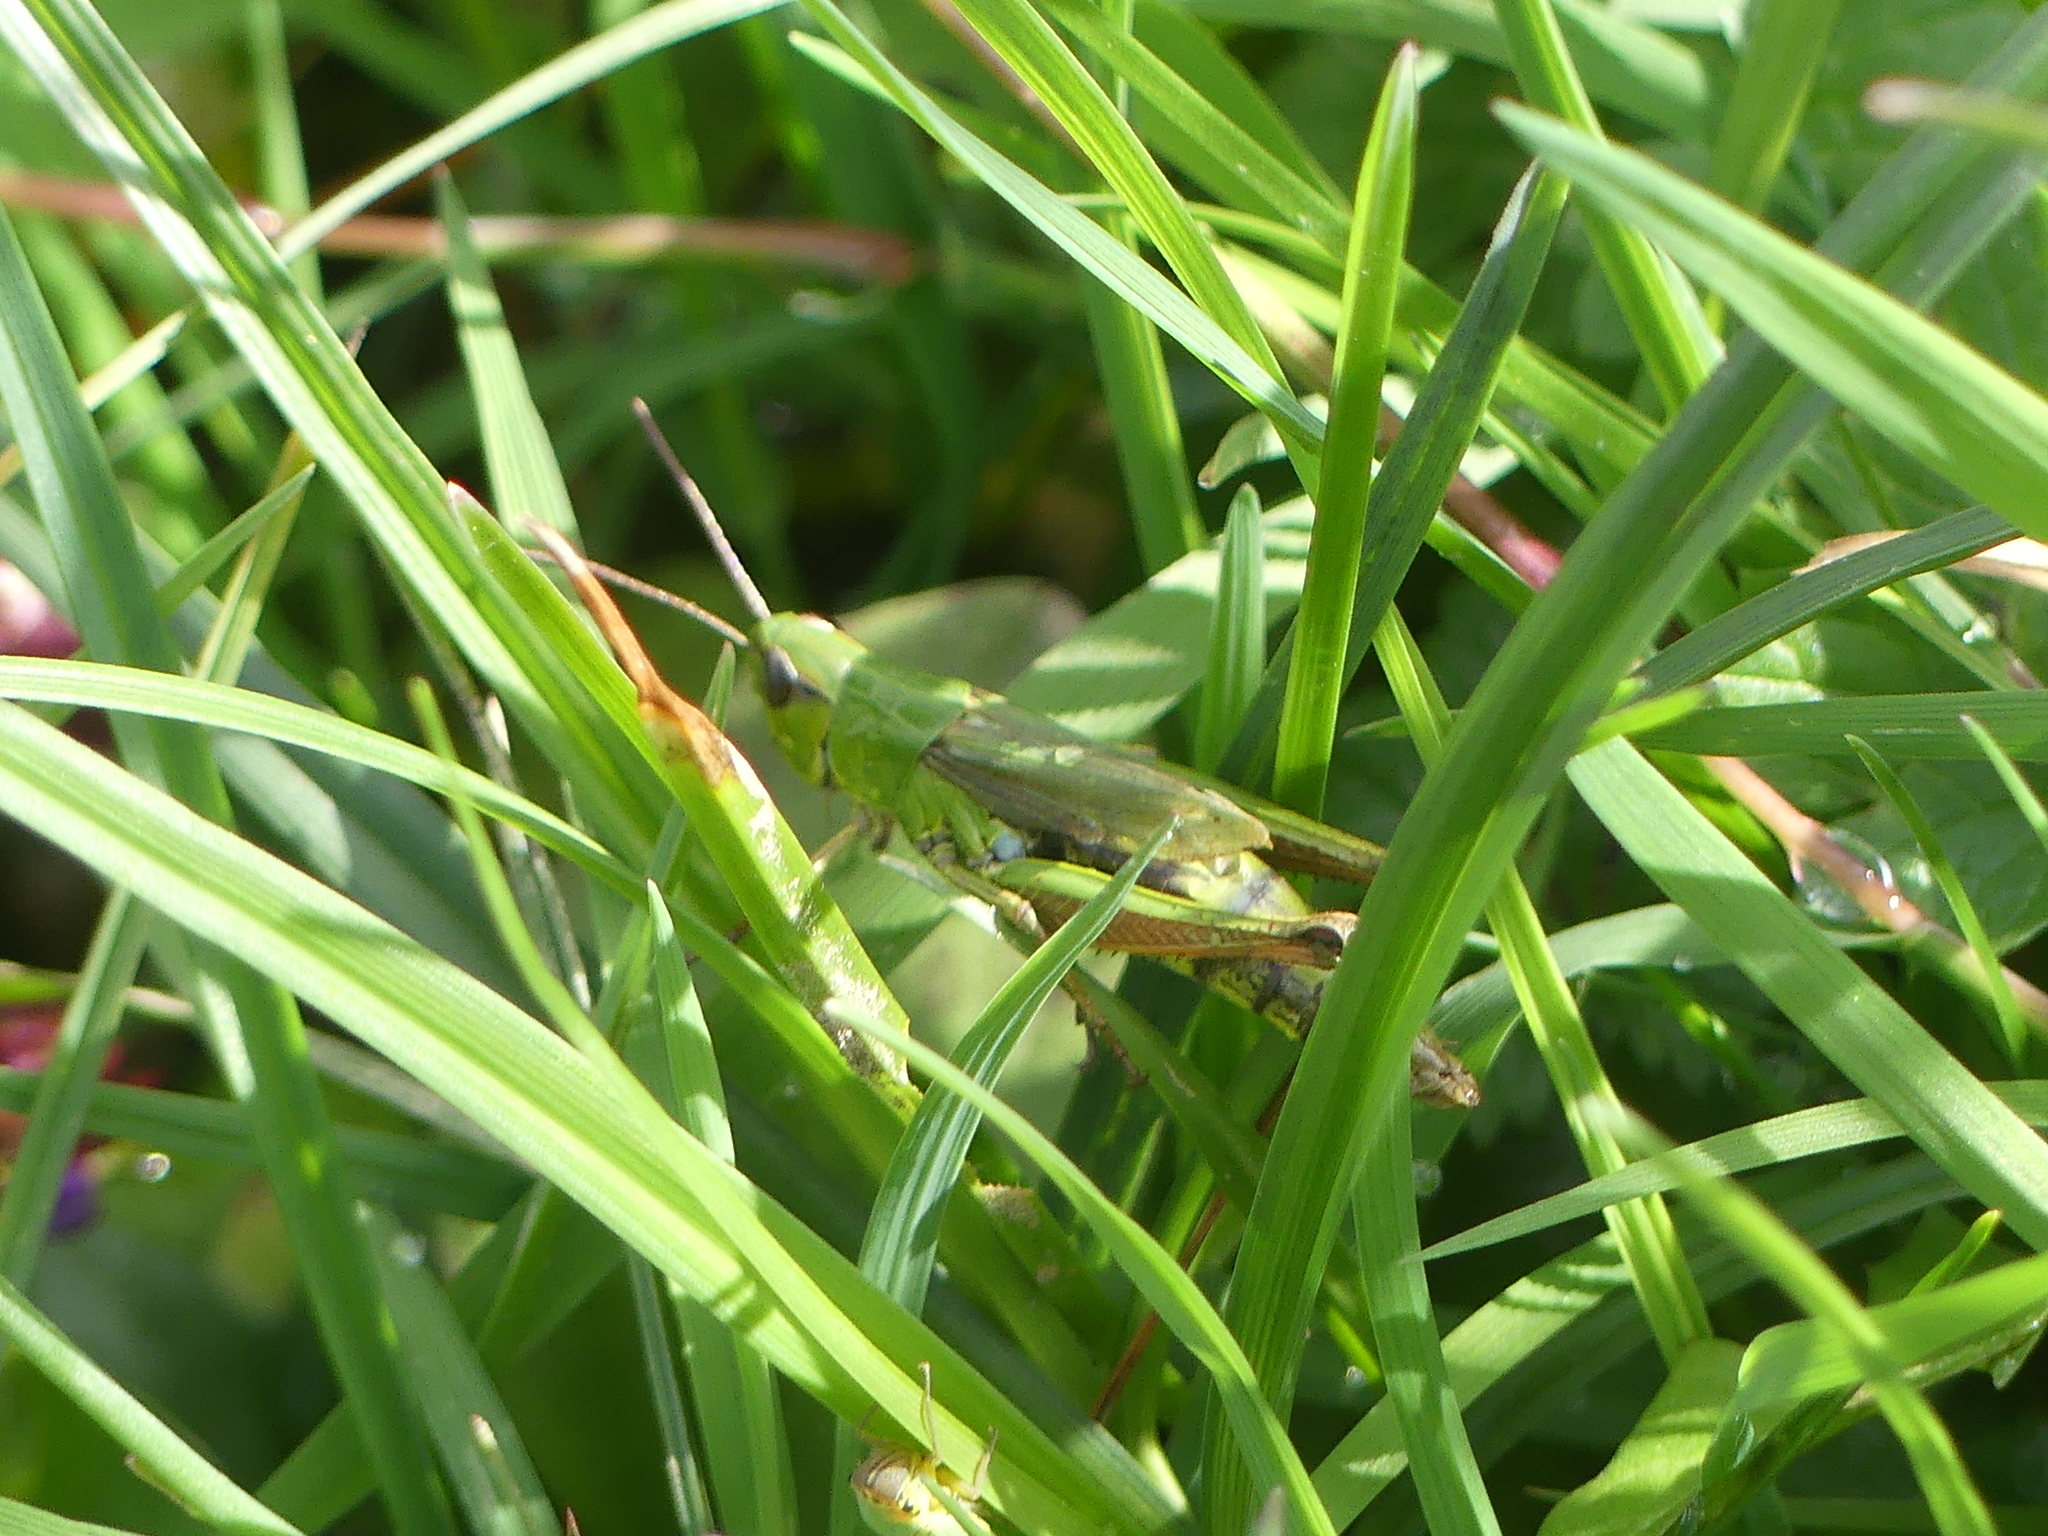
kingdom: Animalia
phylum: Arthropoda
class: Insecta
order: Orthoptera
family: Acrididae
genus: Pseudochorthippus
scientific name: Pseudochorthippus montanus
